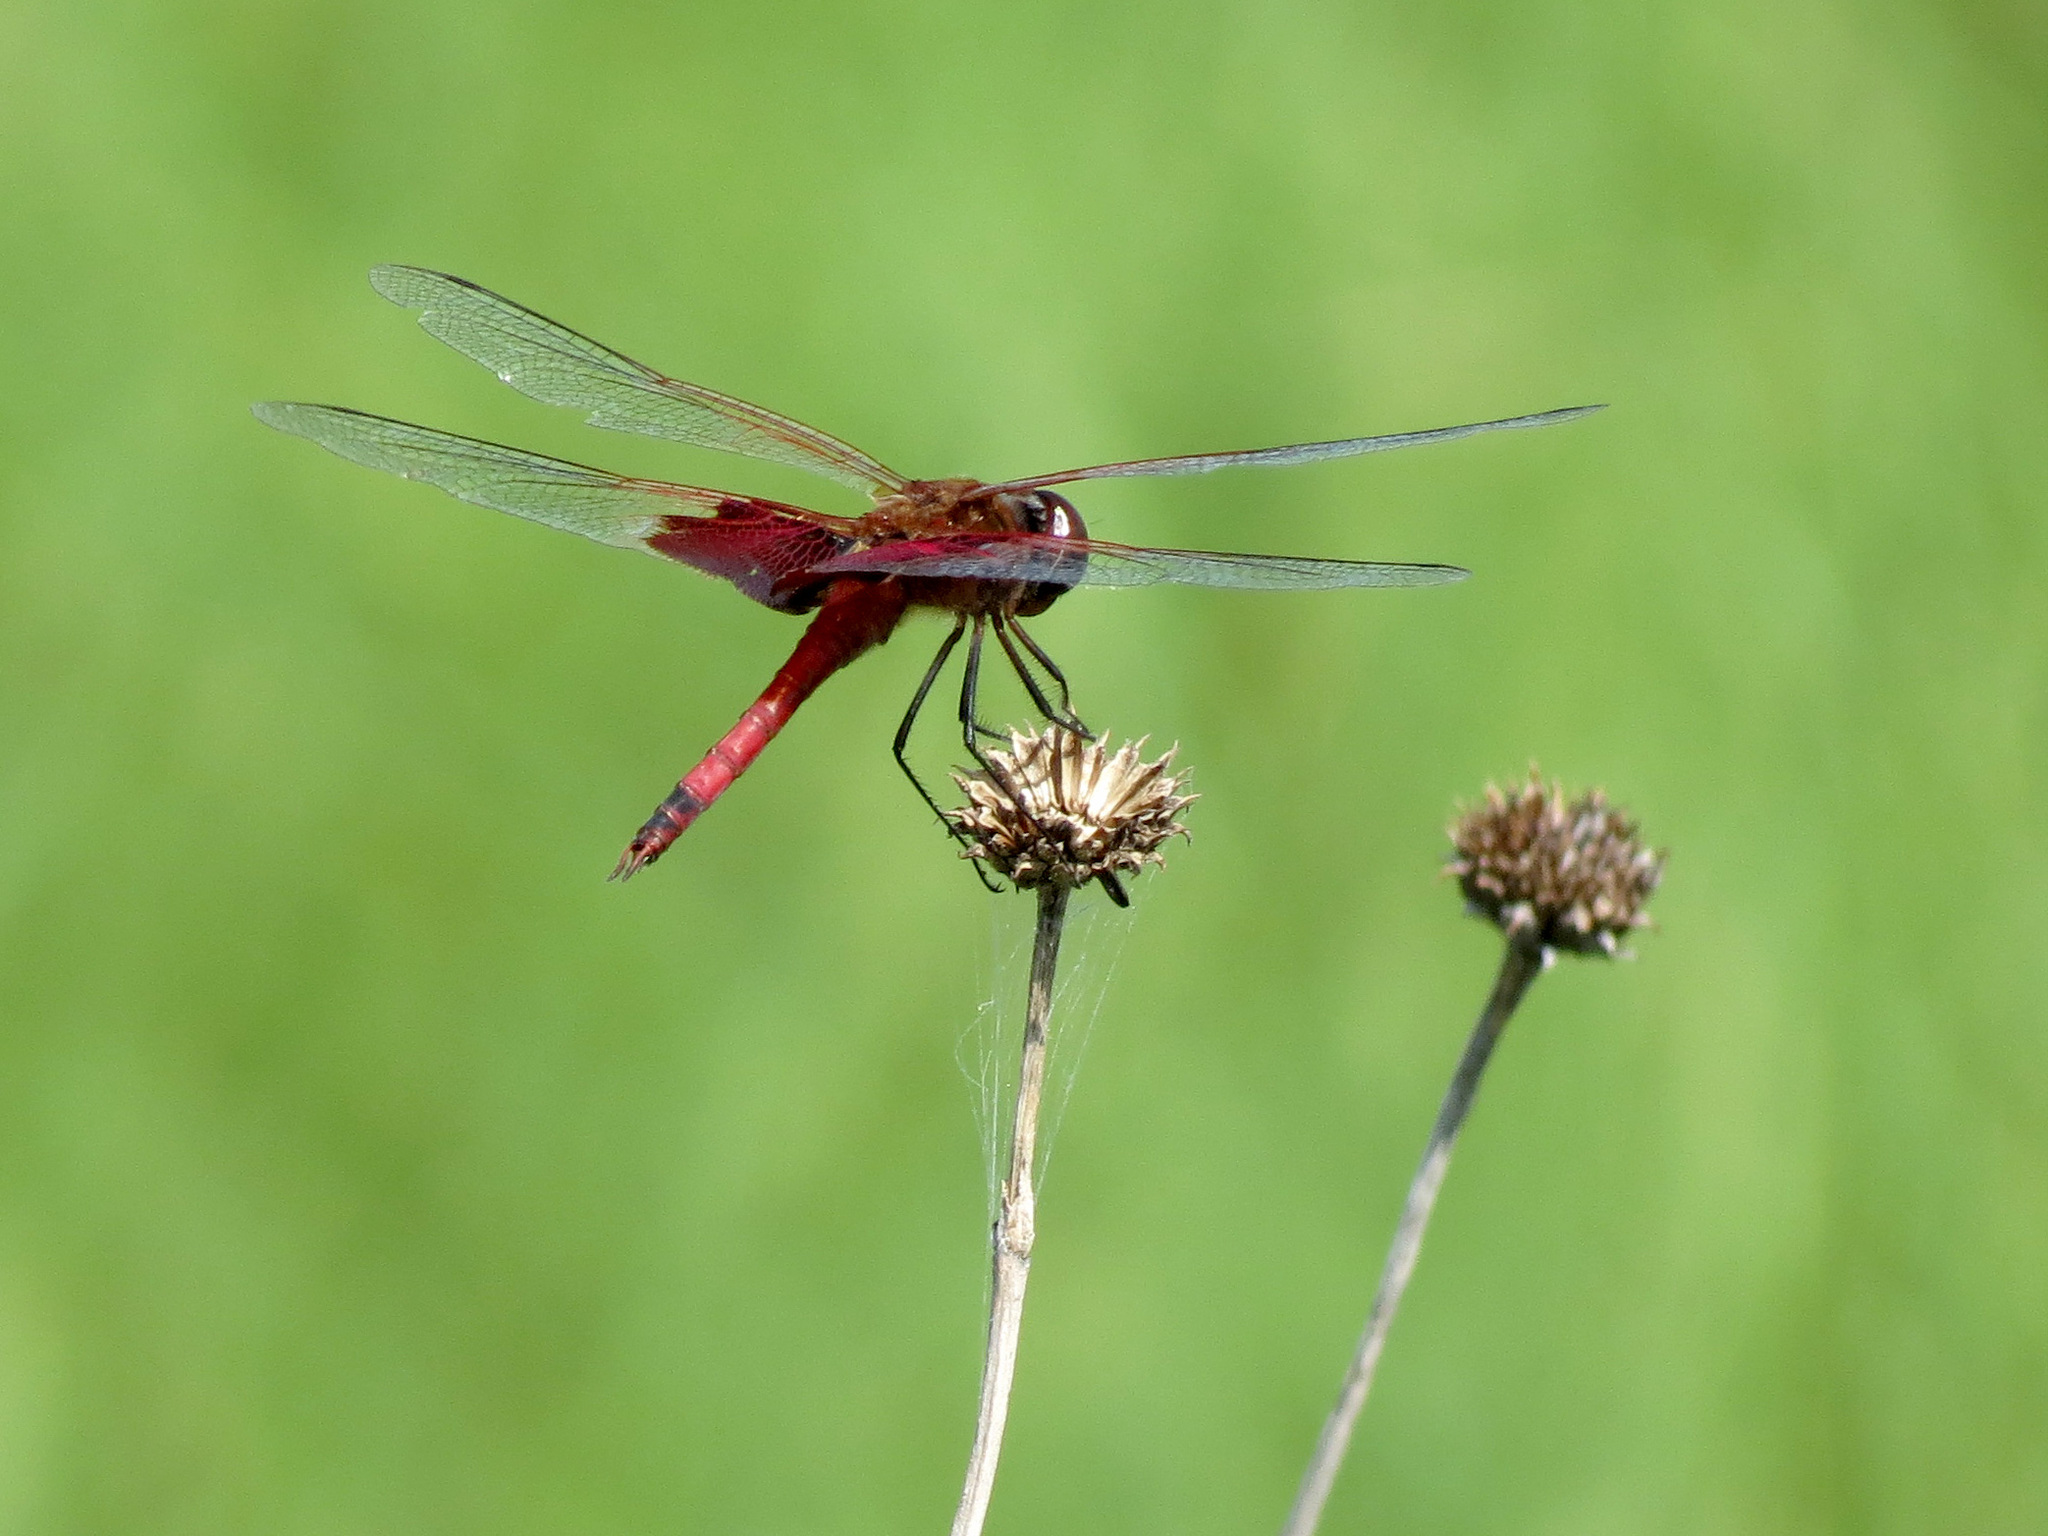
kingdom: Animalia
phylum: Arthropoda
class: Insecta
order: Odonata
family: Libellulidae
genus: Tramea
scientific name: Tramea carolina
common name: Carolina saddlebags
